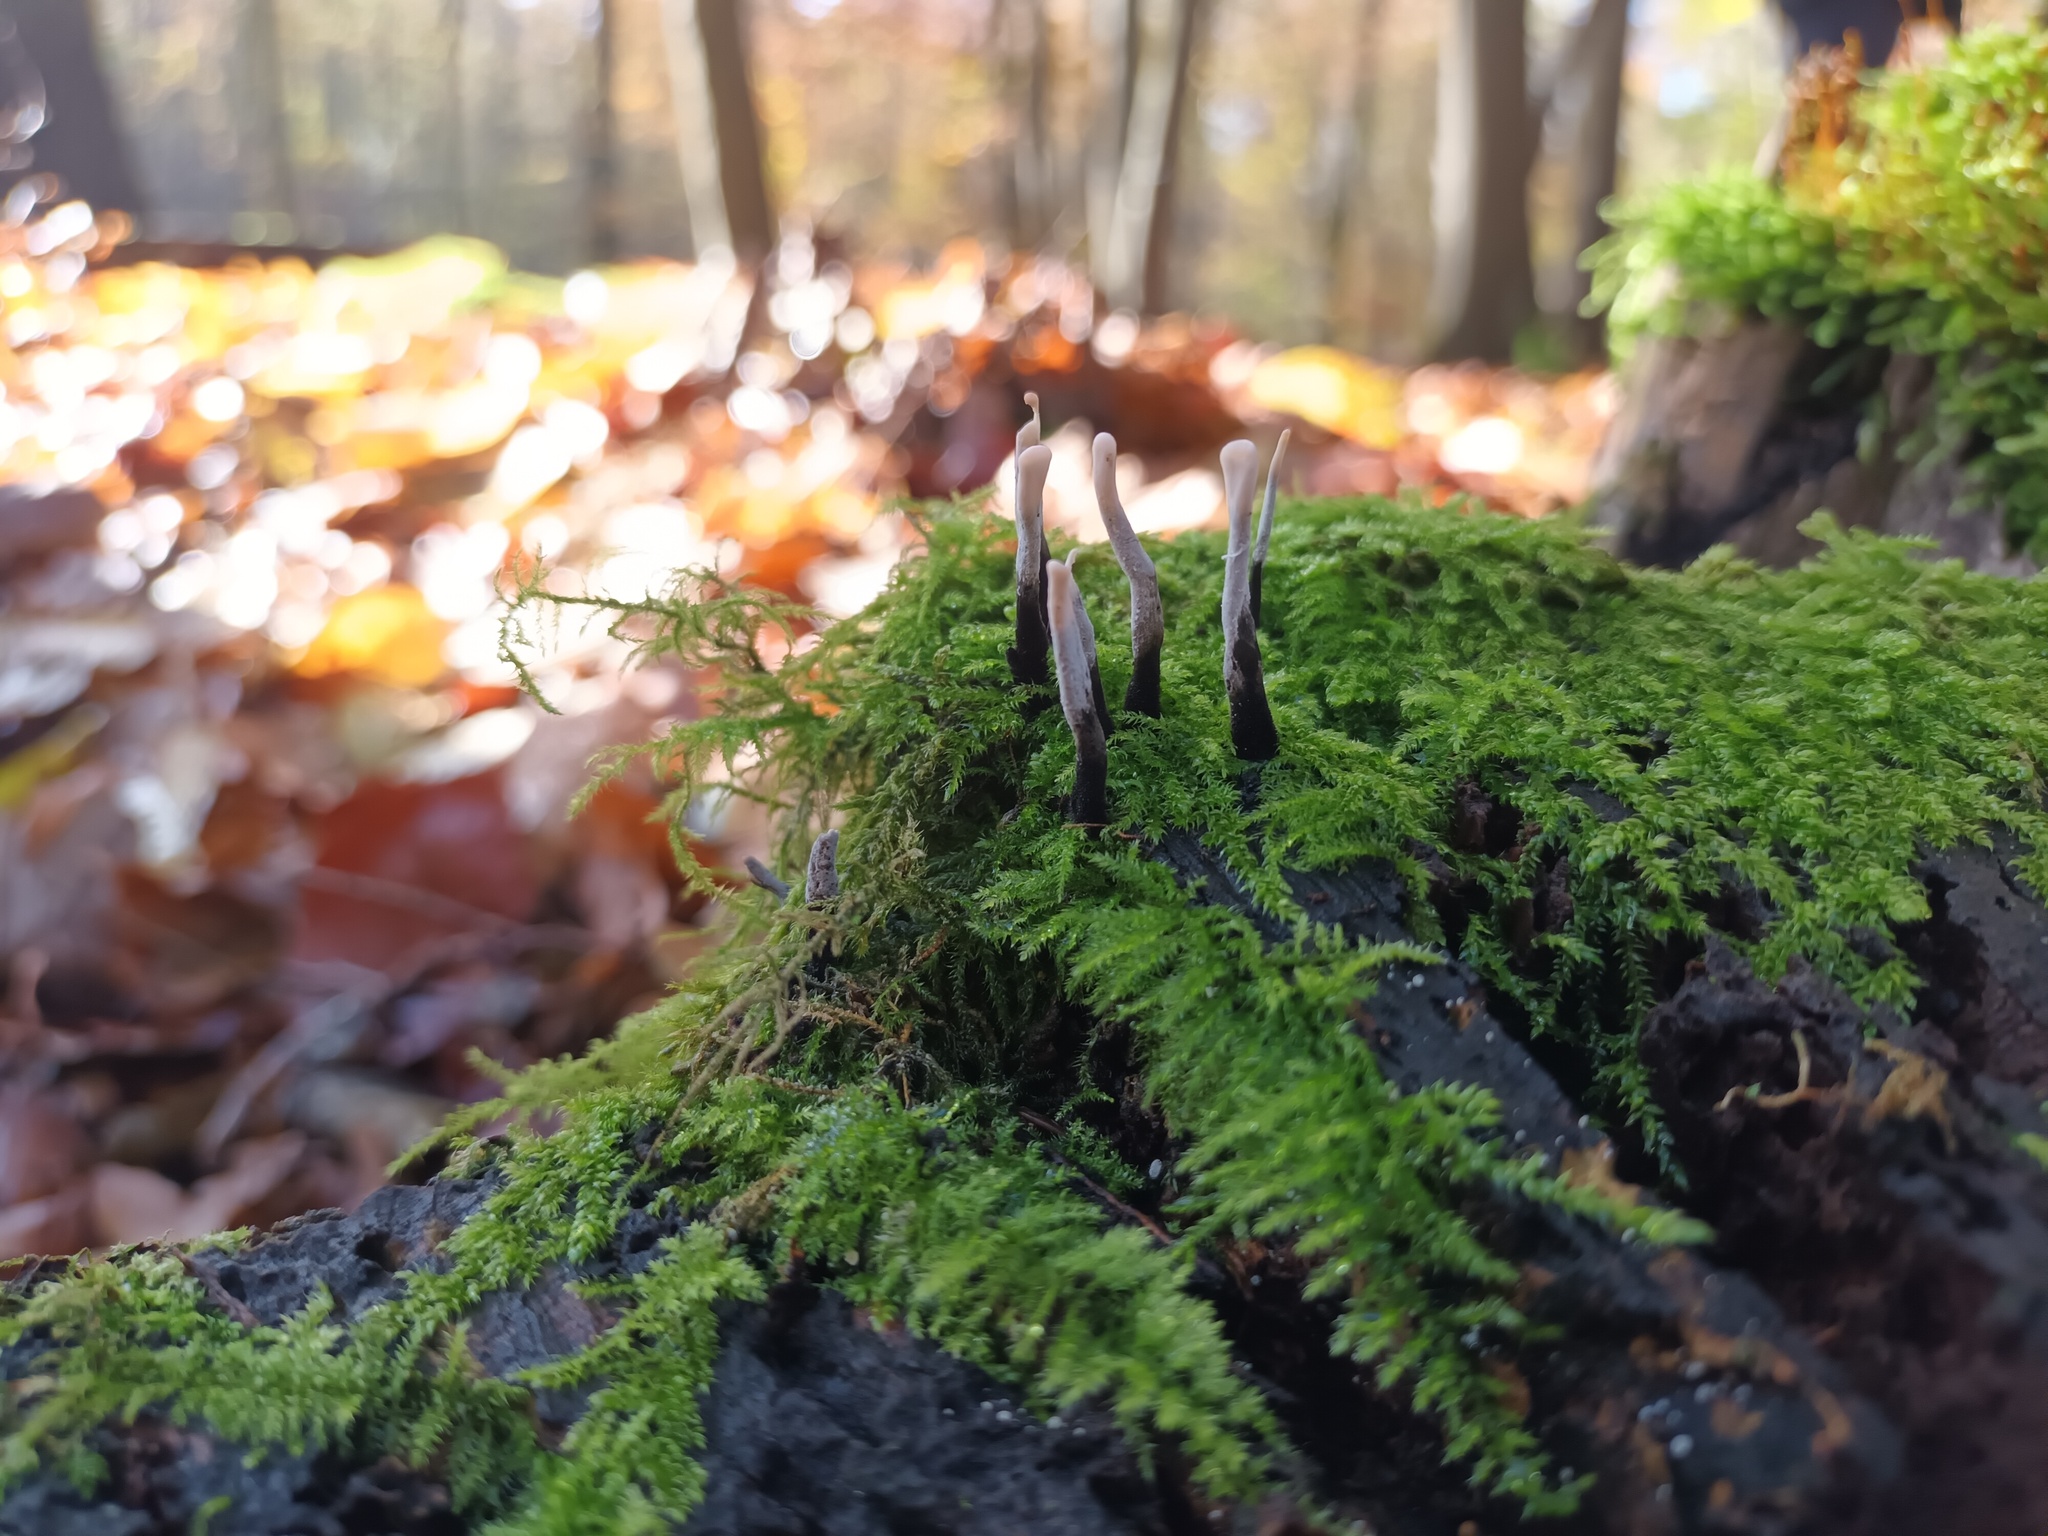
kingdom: Fungi
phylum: Ascomycota
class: Sordariomycetes
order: Xylariales
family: Xylariaceae
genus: Xylaria
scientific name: Xylaria hypoxylon
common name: Candle-snuff fungus
